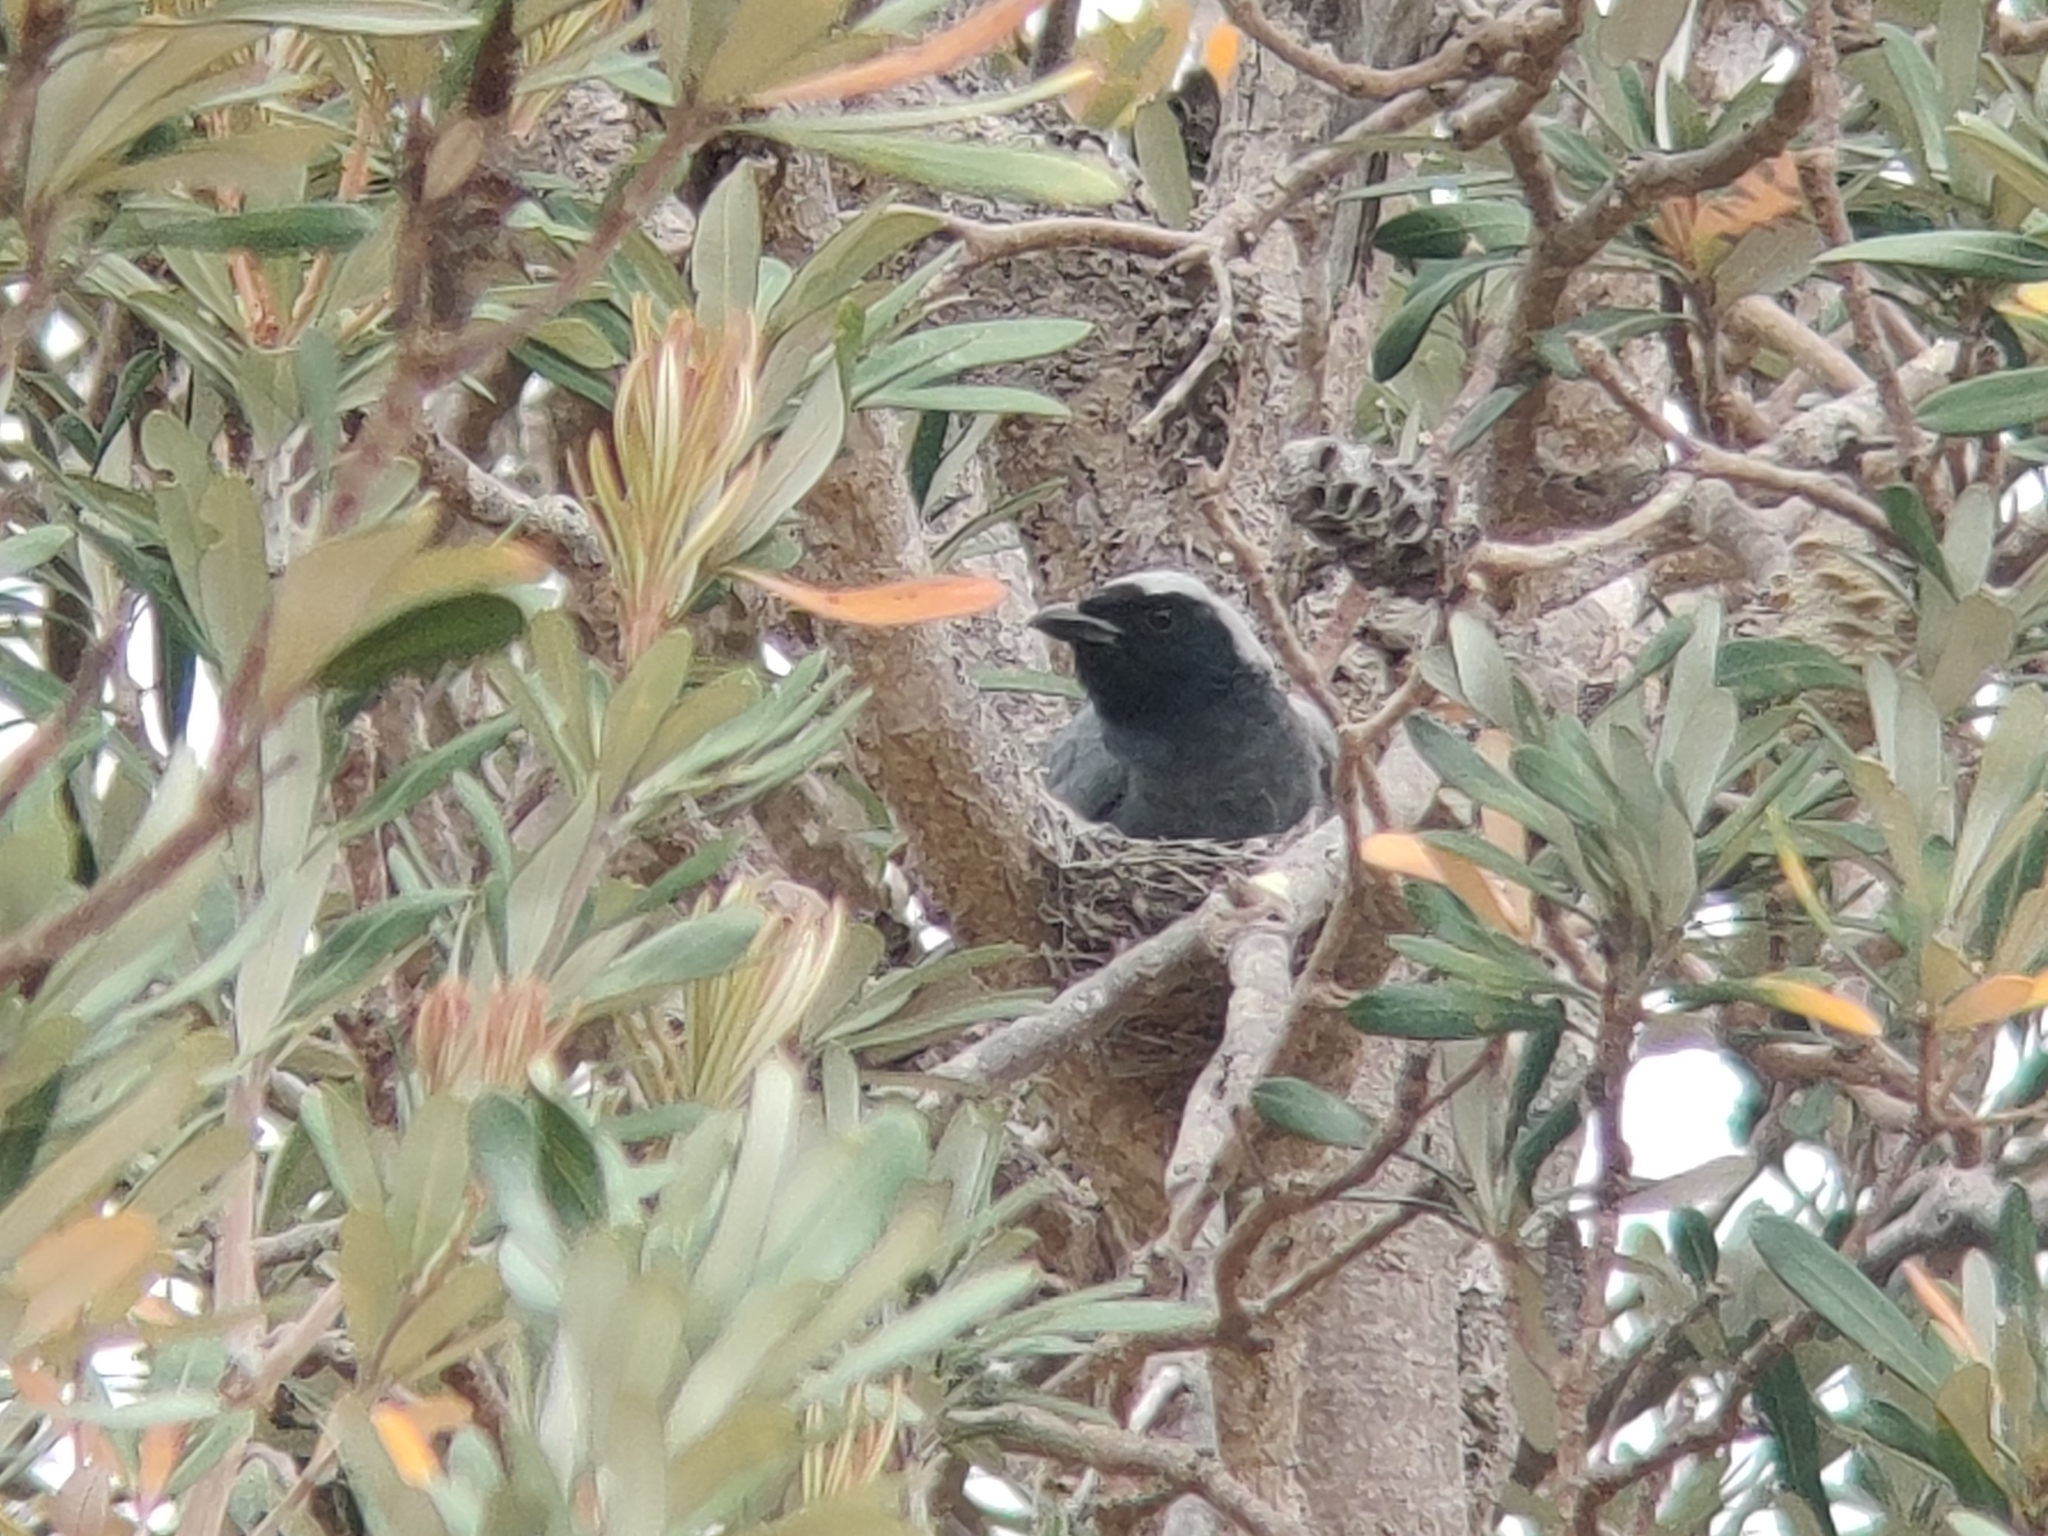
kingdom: Animalia
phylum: Chordata
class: Aves
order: Passeriformes
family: Campephagidae
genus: Coracina
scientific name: Coracina novaehollandiae
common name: Black-faced cuckooshrike
